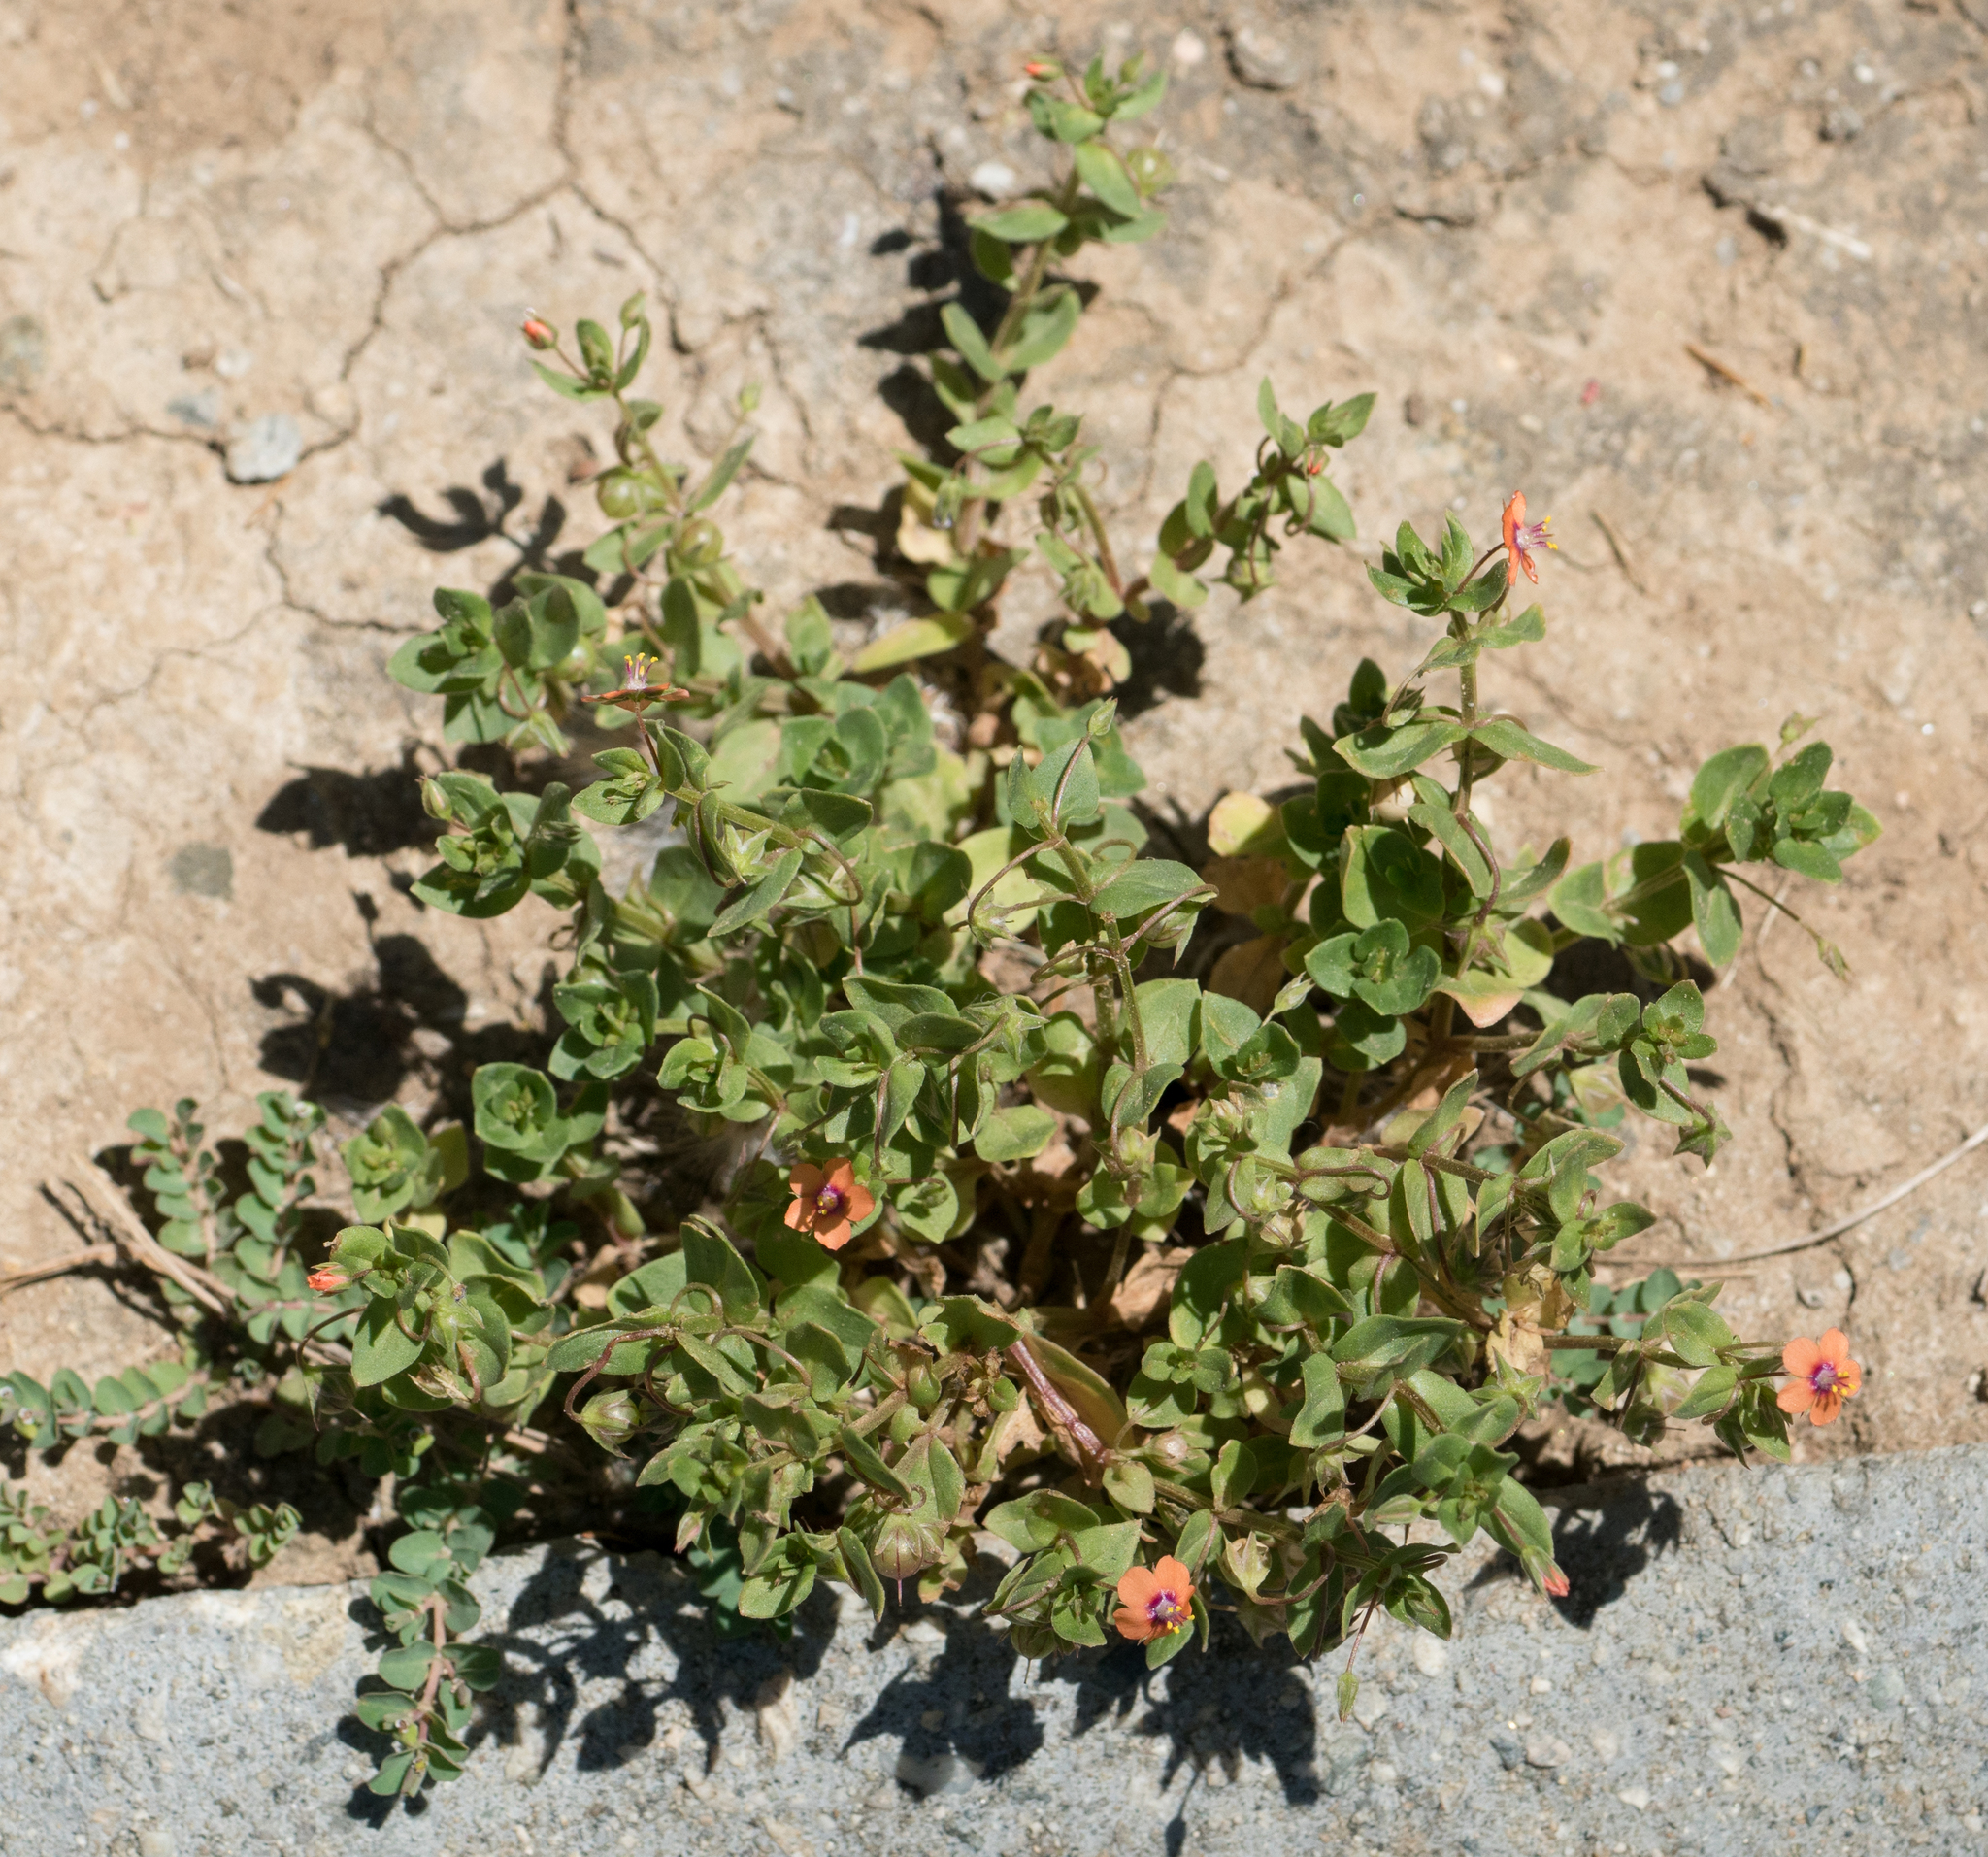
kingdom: Plantae
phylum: Tracheophyta
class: Magnoliopsida
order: Ericales
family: Primulaceae
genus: Lysimachia
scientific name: Lysimachia arvensis
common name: Scarlet pimpernel
